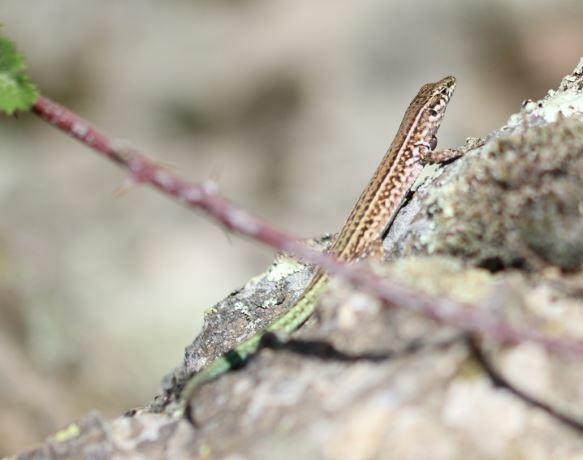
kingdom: Animalia
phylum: Chordata
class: Squamata
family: Lacertidae
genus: Podarcis
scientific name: Podarcis tiliguerta
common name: Tyrrhenian wall lizard
